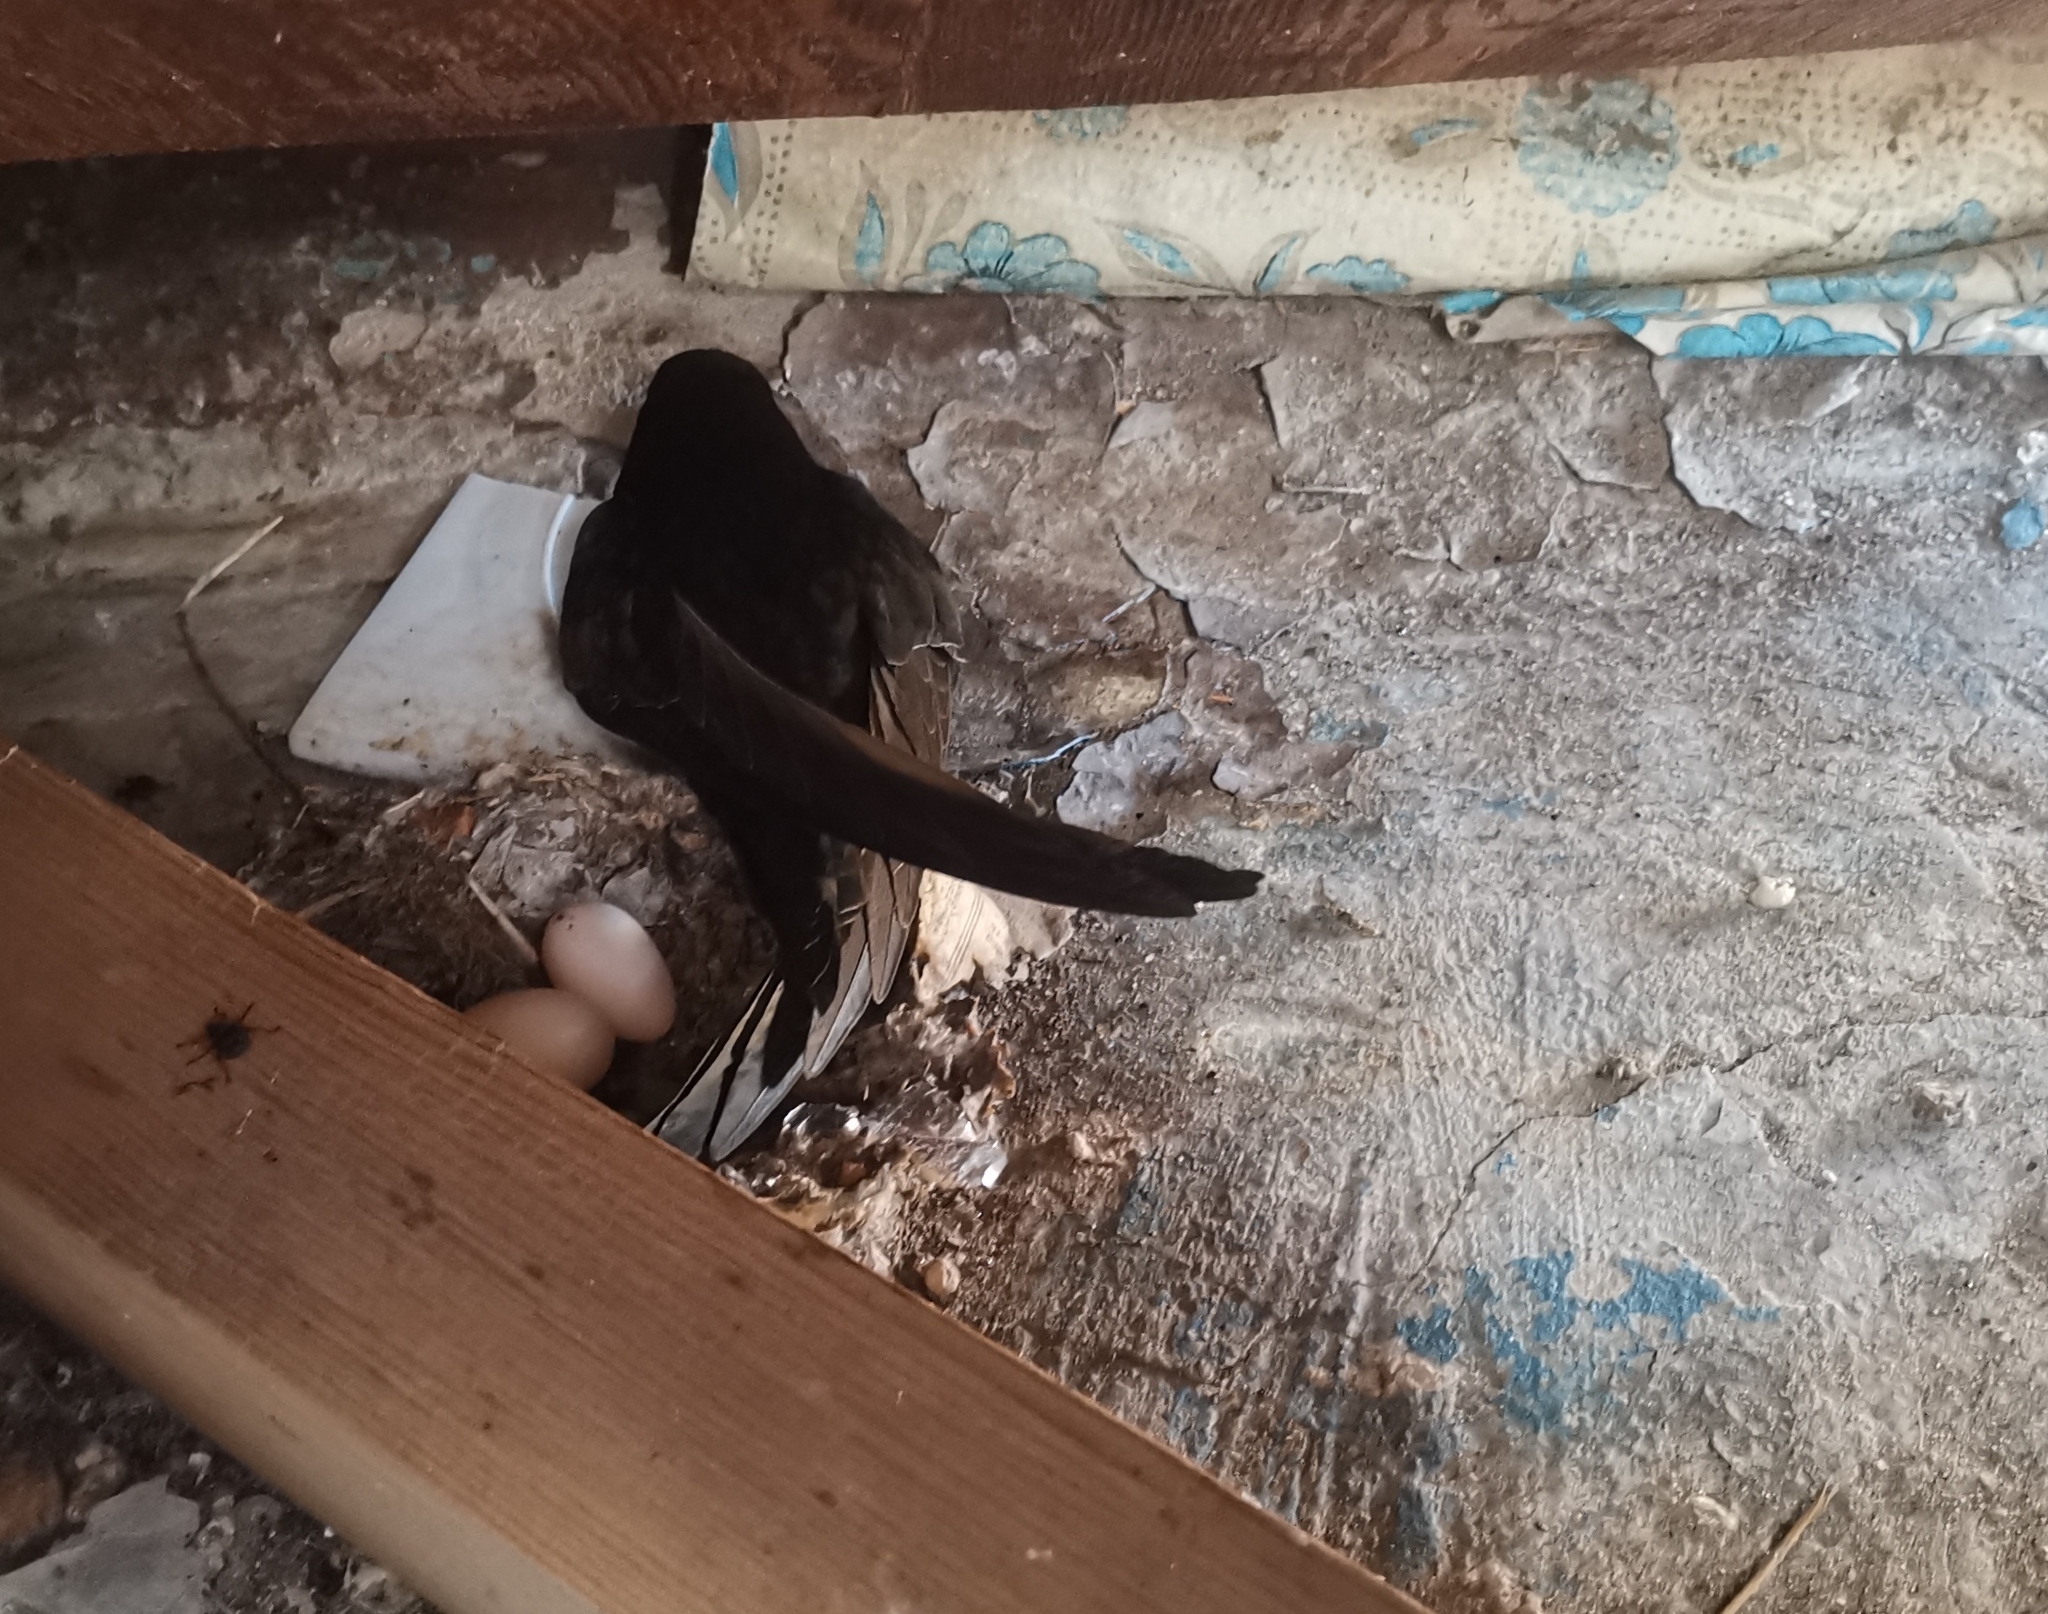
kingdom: Animalia
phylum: Chordata
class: Aves
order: Apodiformes
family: Apodidae
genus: Apus
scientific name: Apus apus
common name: Common swift
